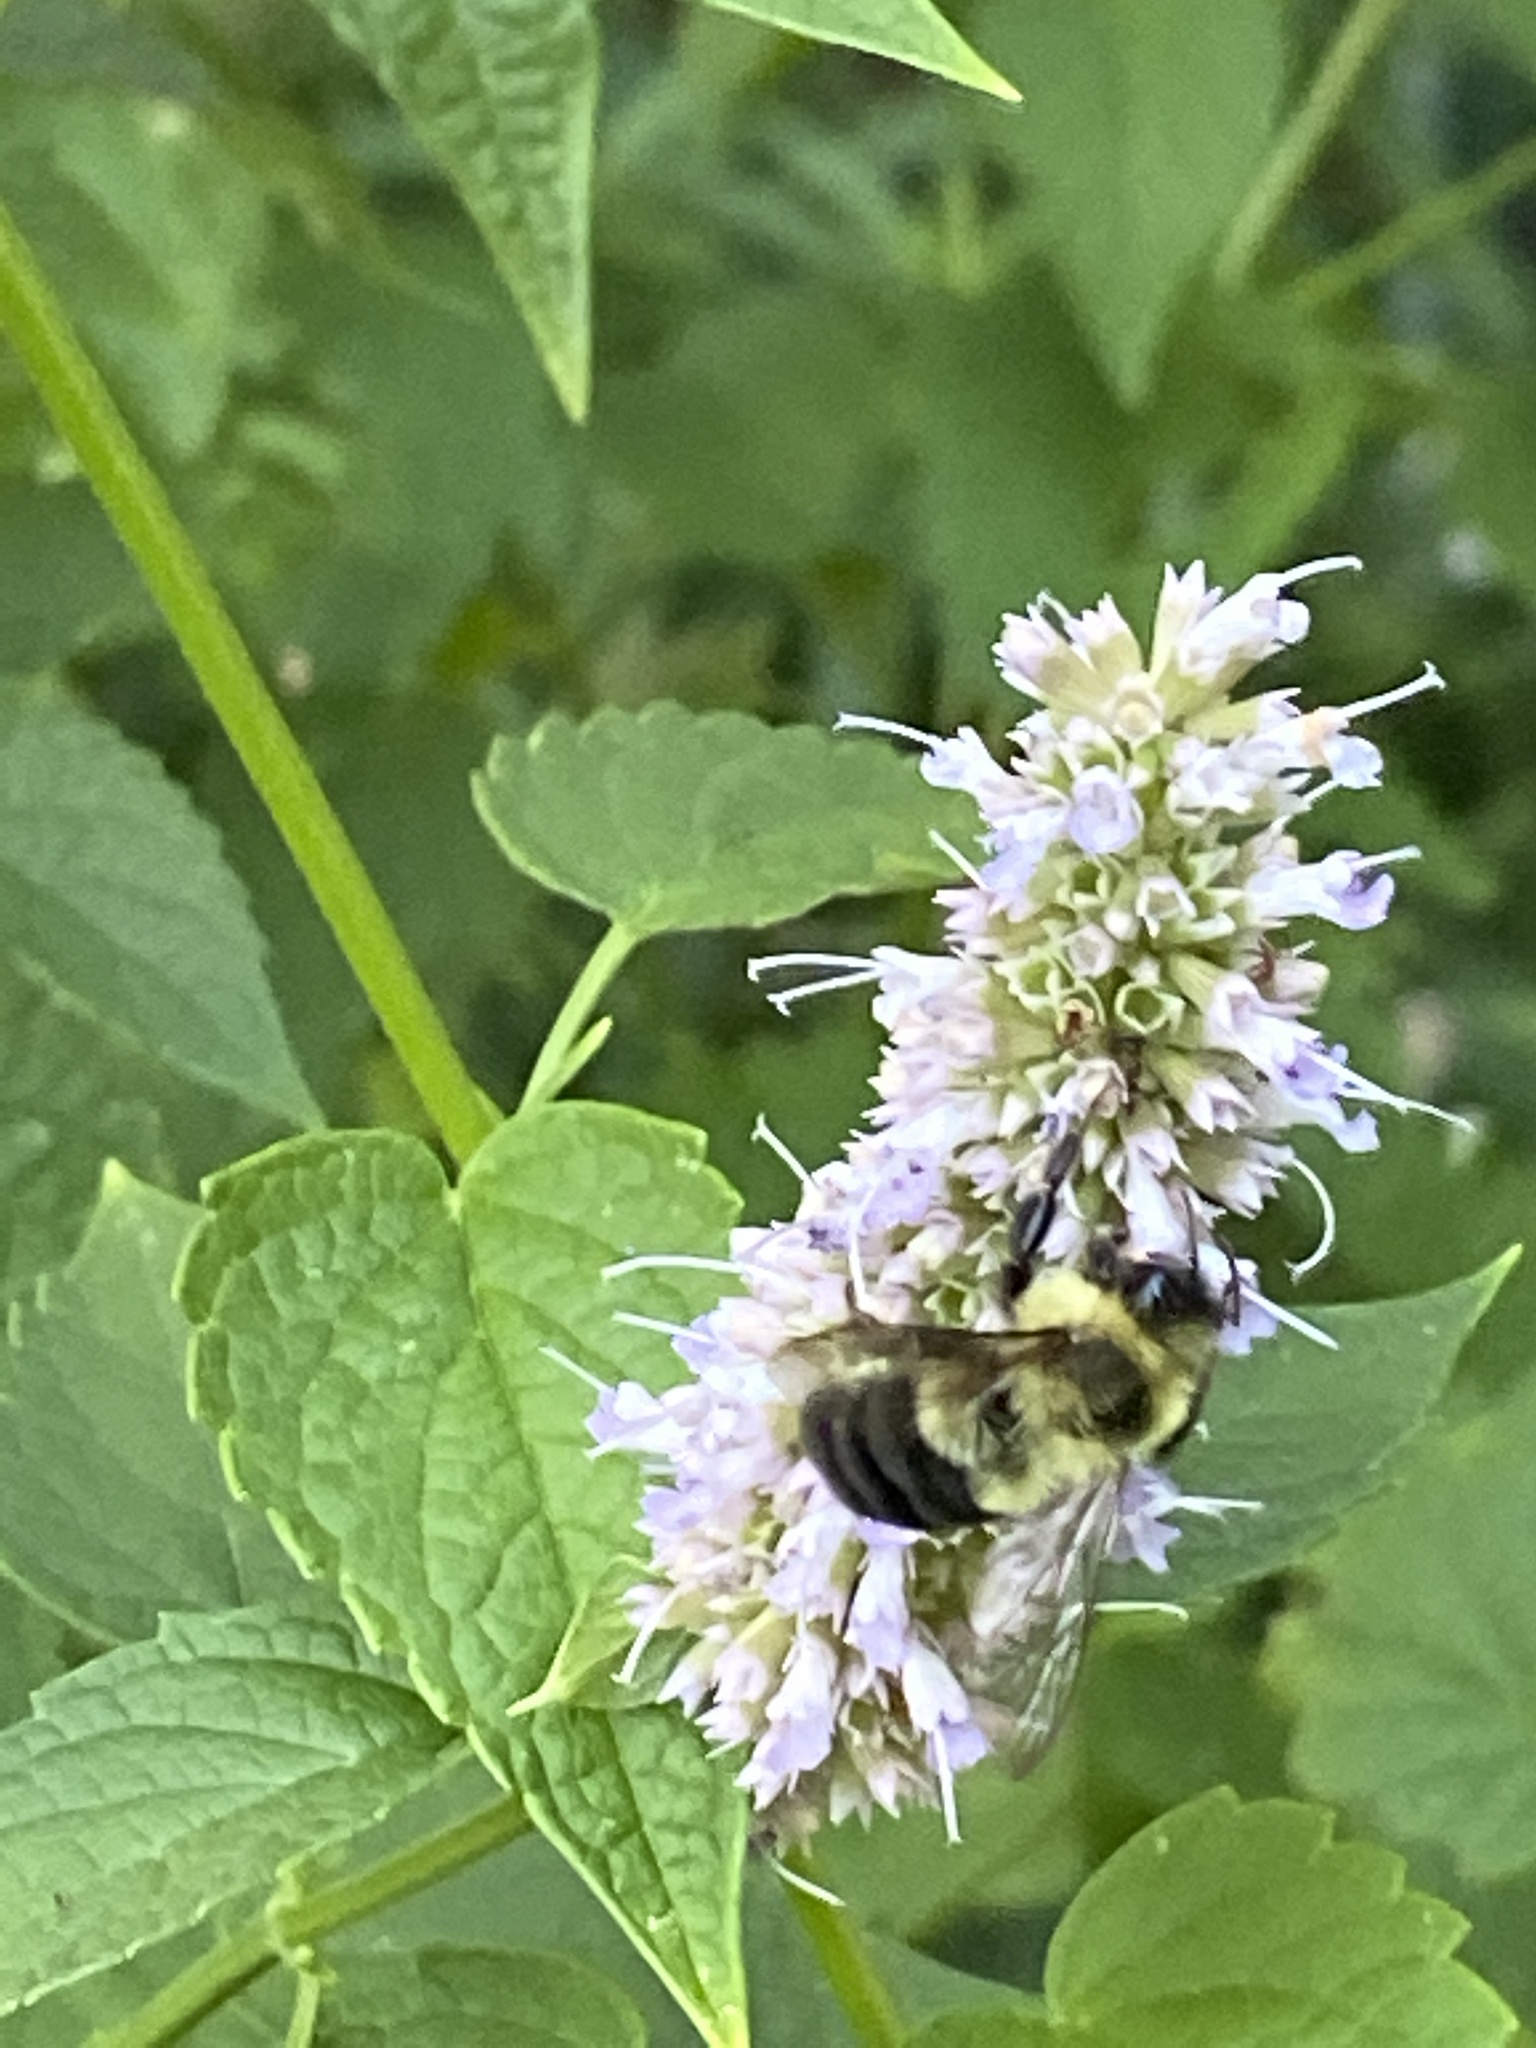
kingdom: Animalia
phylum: Arthropoda
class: Insecta
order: Hymenoptera
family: Apidae
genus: Bombus
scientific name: Bombus impatiens
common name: Common eastern bumble bee
